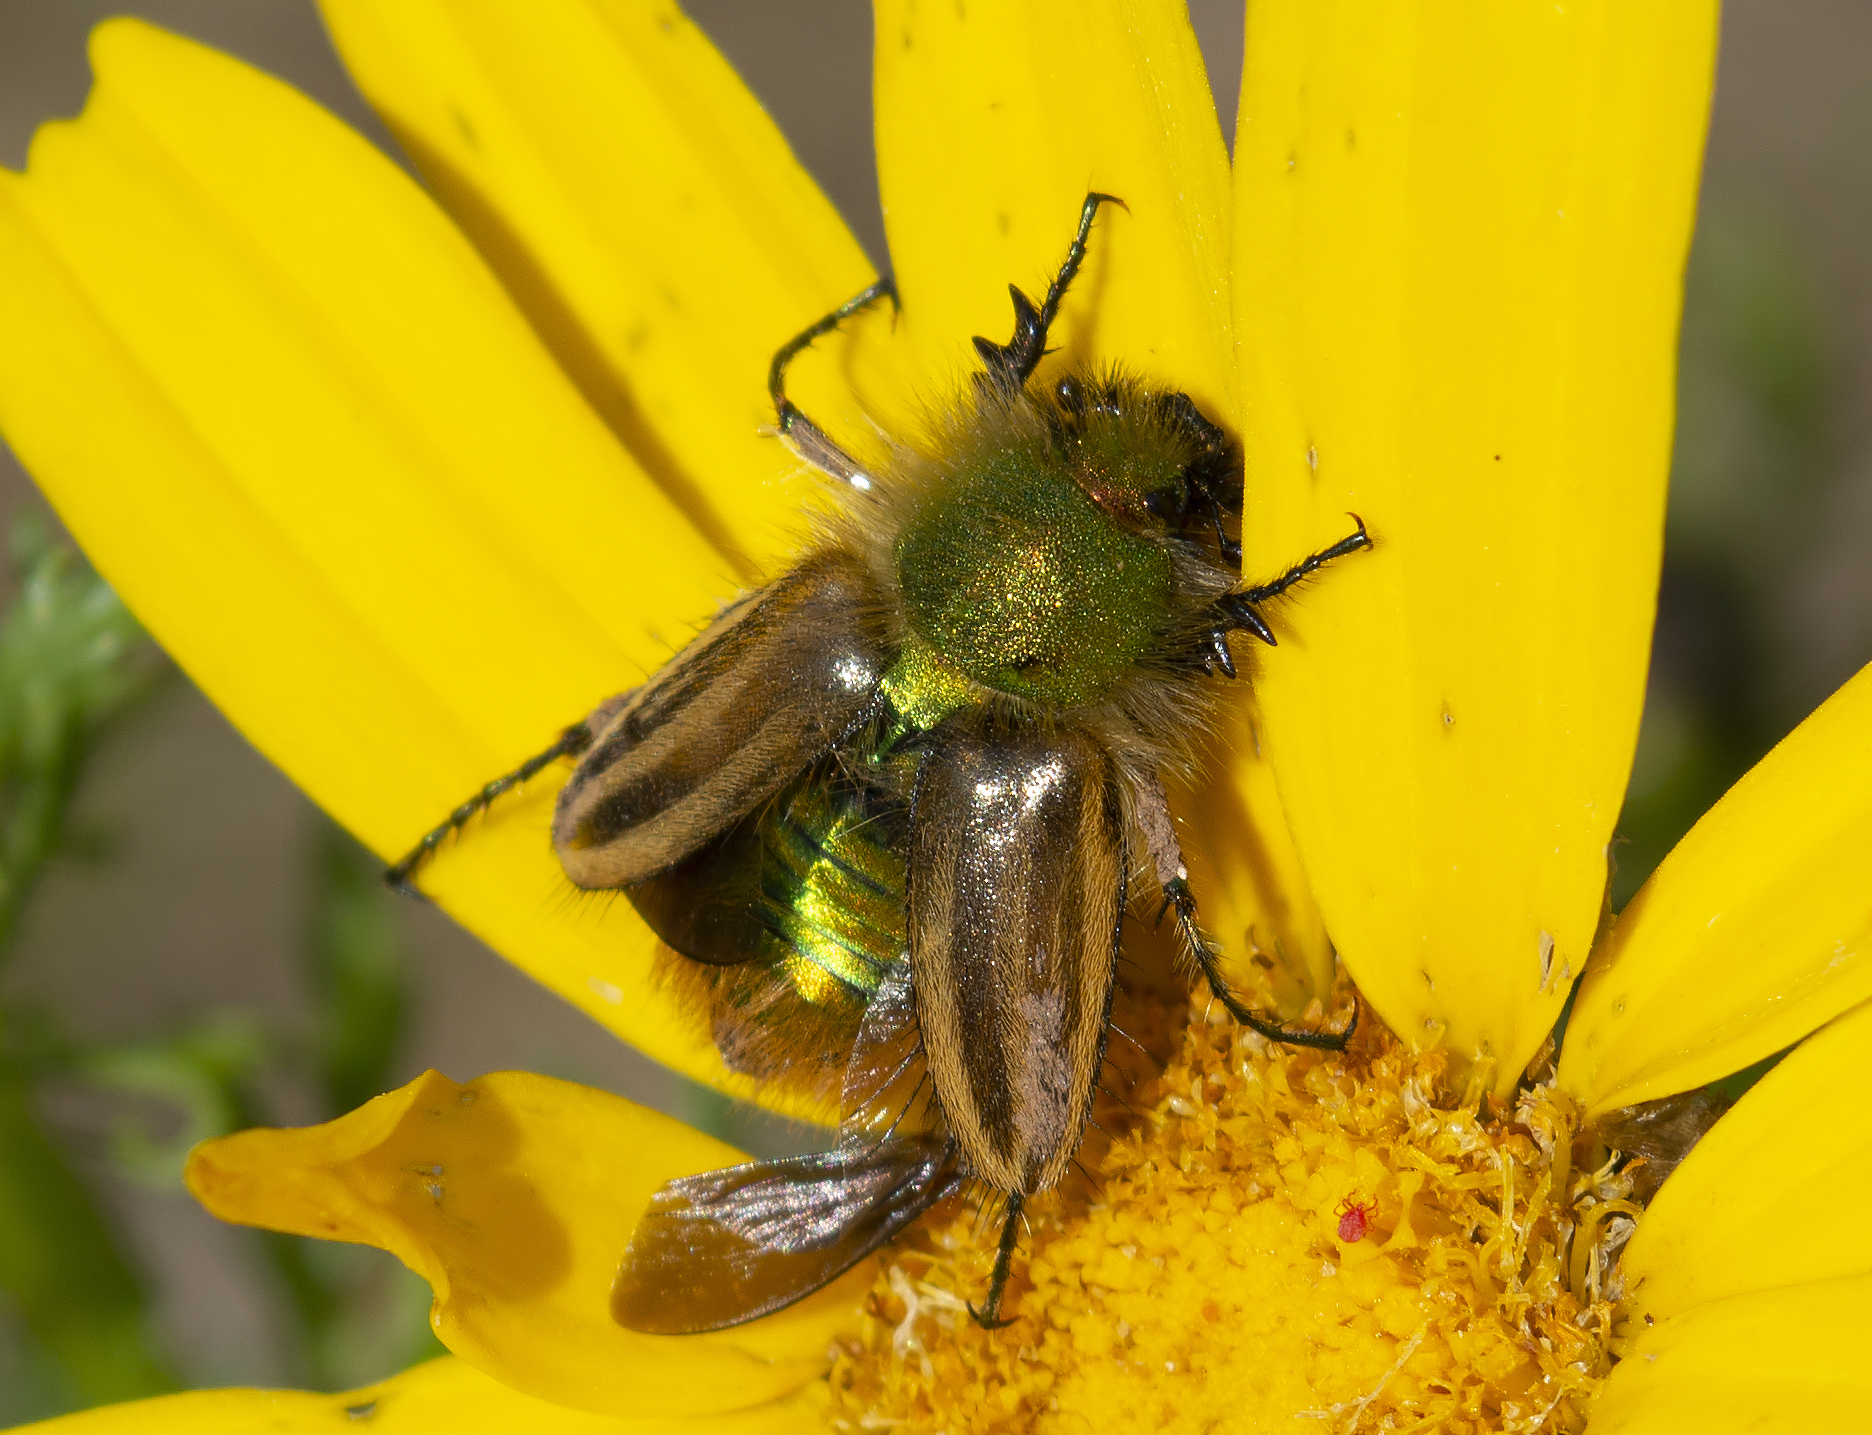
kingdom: Animalia
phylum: Arthropoda
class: Insecta
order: Coleoptera
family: Glaphyridae
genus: Eulasia
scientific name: Eulasia pareyssei
